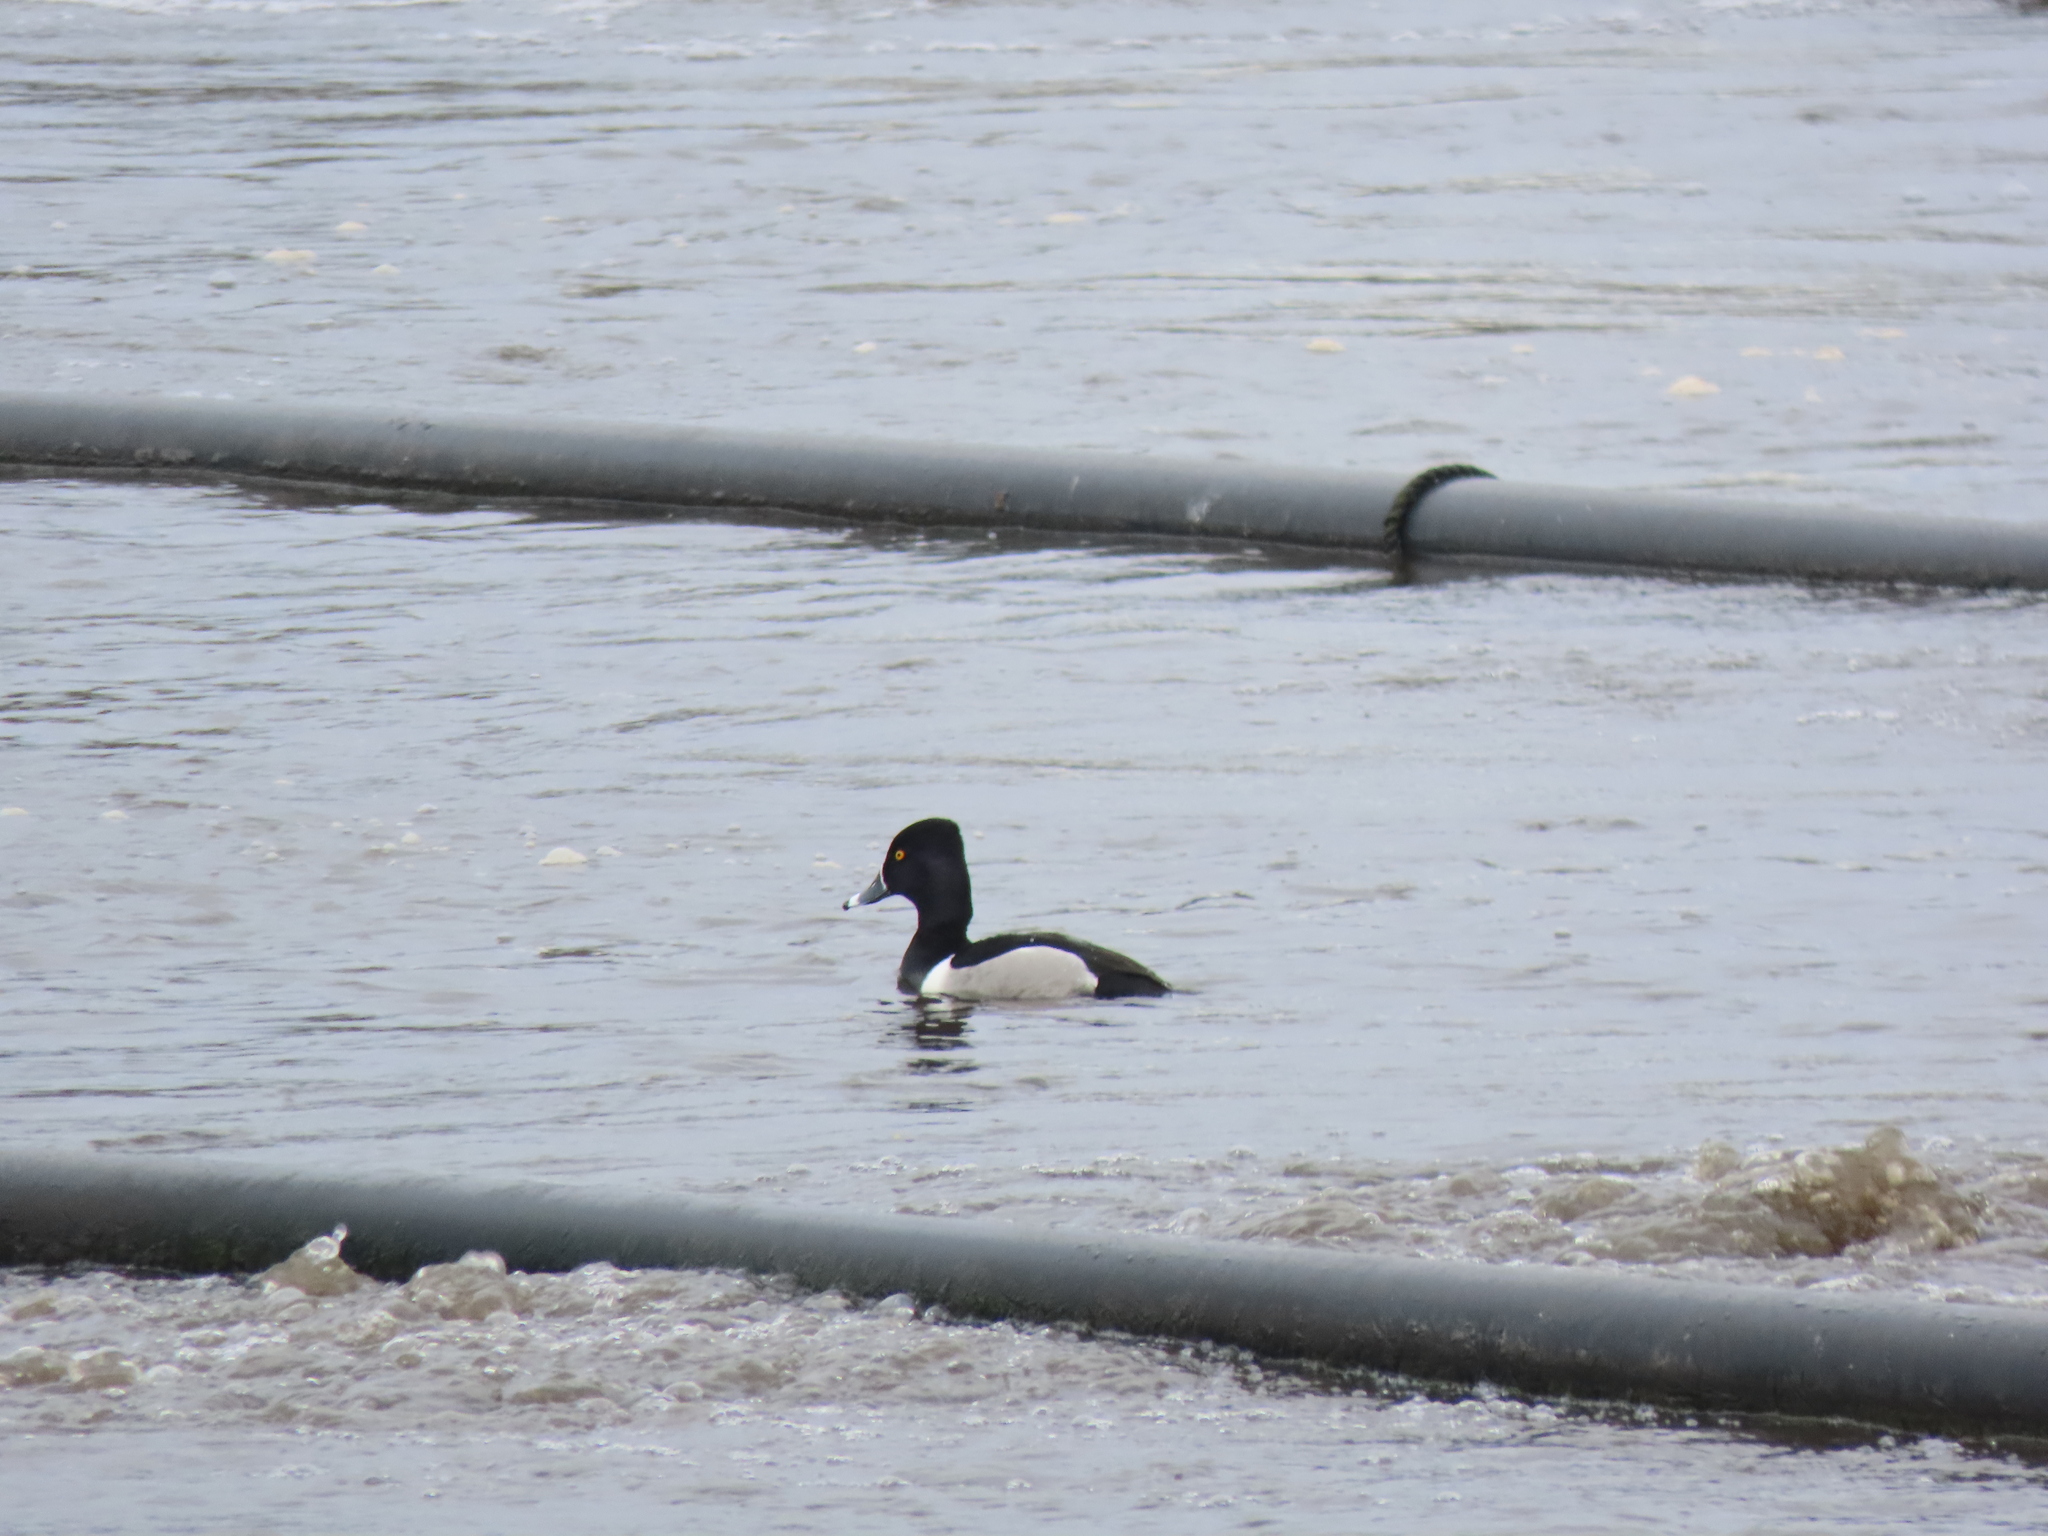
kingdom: Animalia
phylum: Chordata
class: Aves
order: Anseriformes
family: Anatidae
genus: Aythya
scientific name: Aythya collaris
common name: Ring-necked duck
